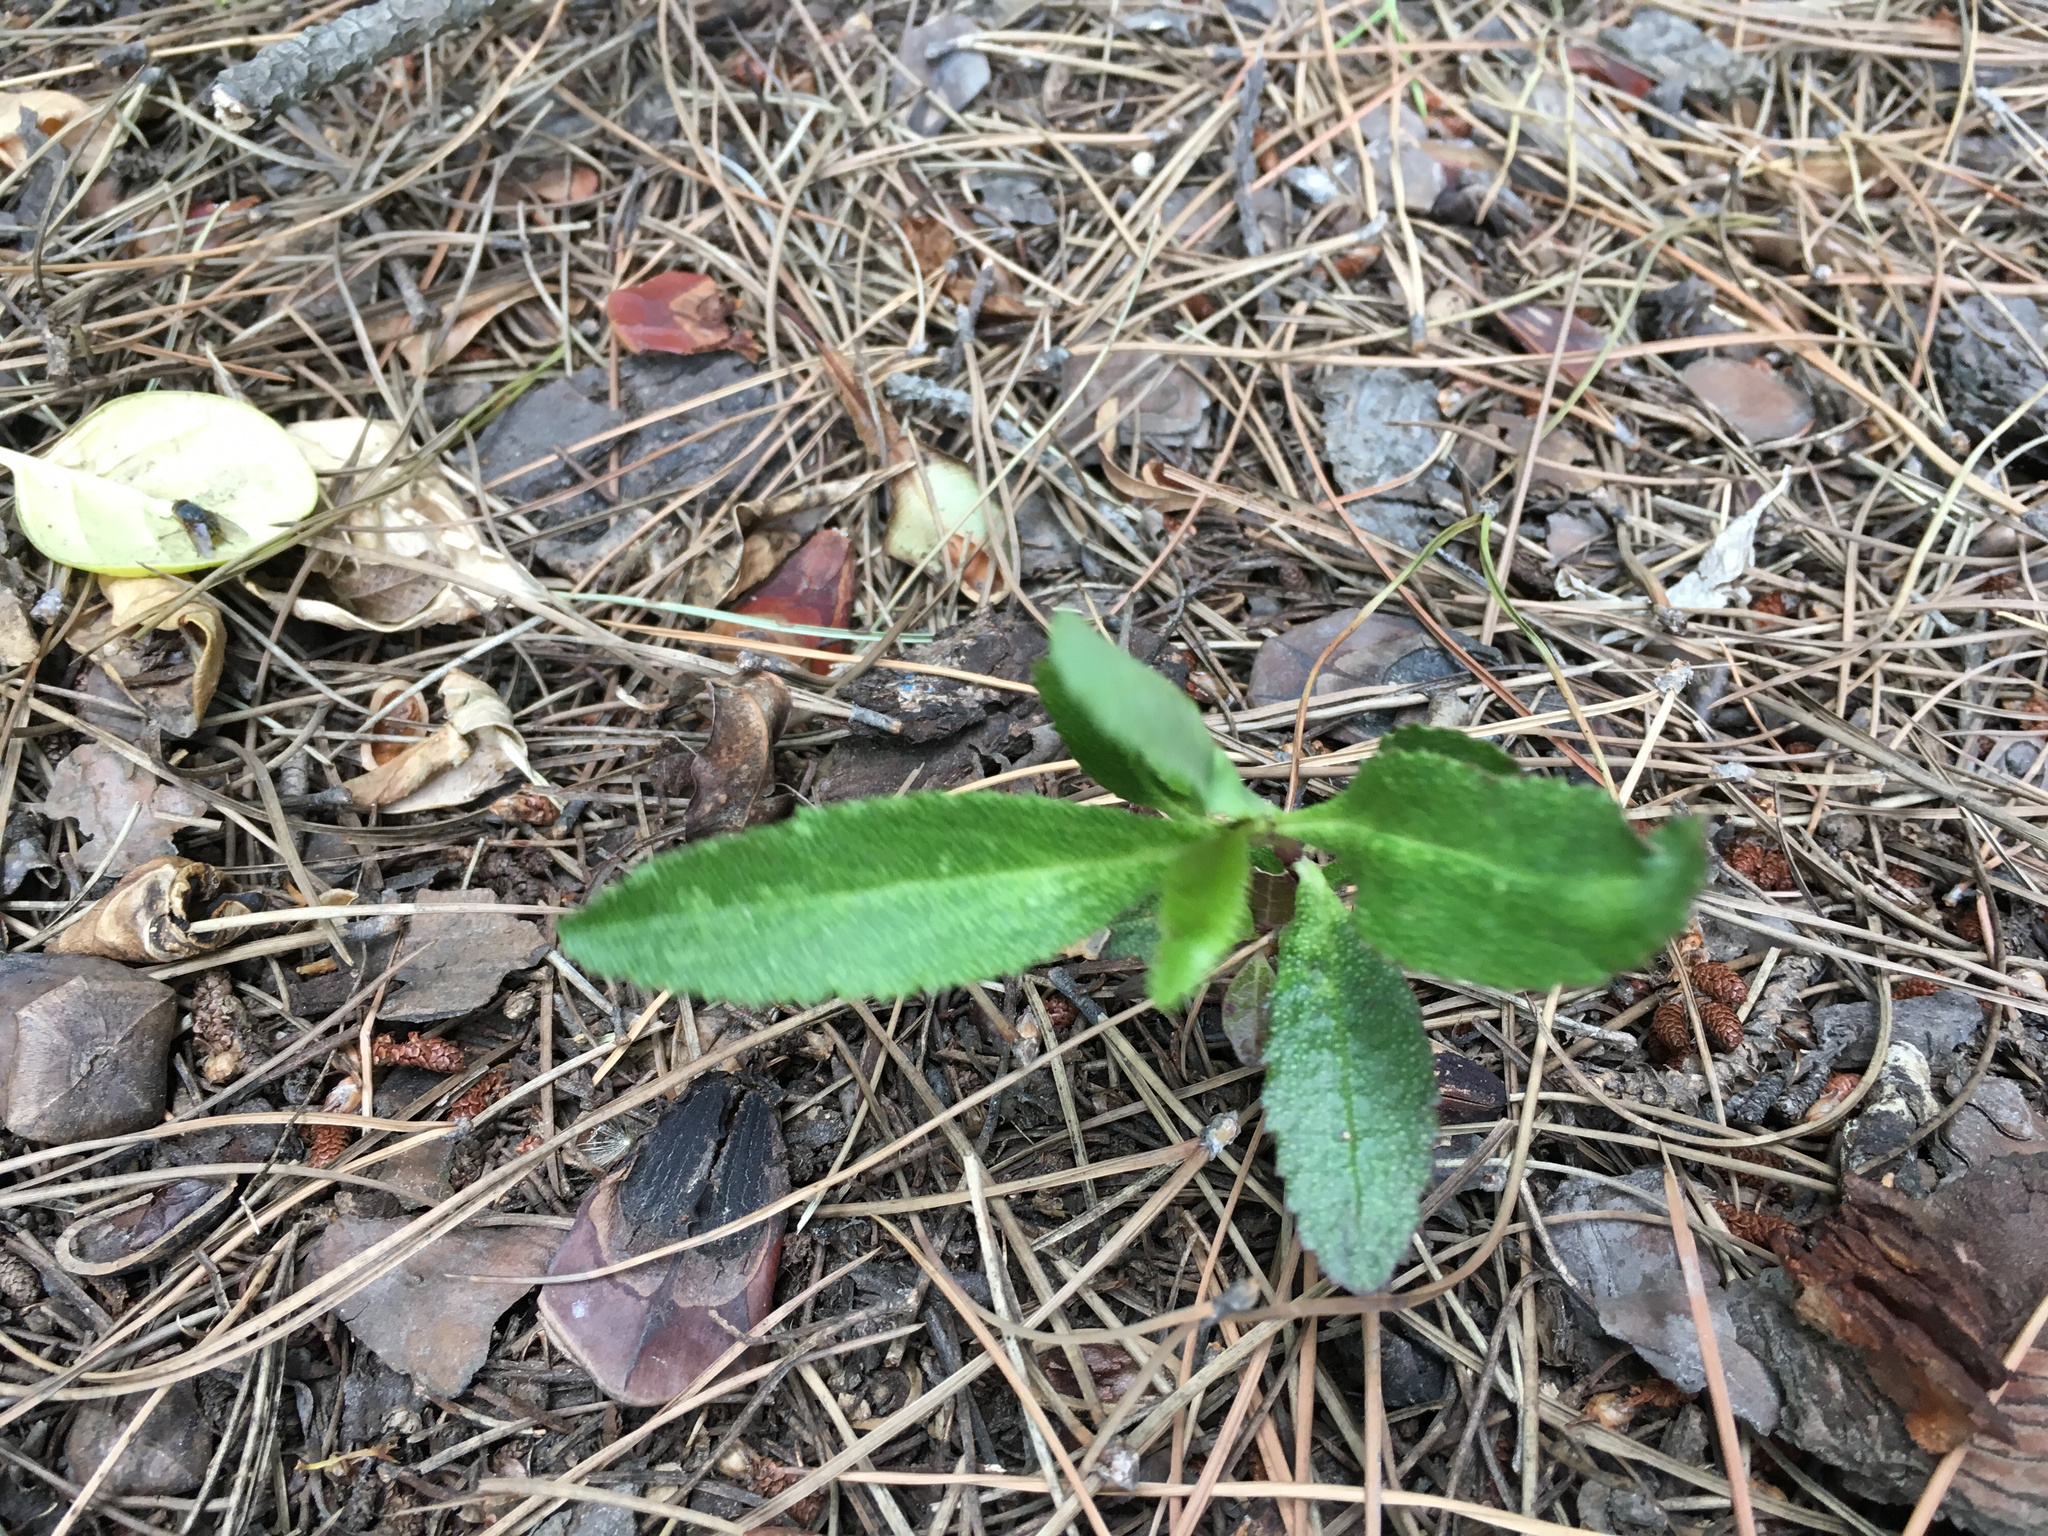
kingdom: Plantae
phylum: Tracheophyta
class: Magnoliopsida
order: Lamiales
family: Scrophulariaceae
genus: Myoporum
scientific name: Myoporum laetum
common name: Ngaio tree
